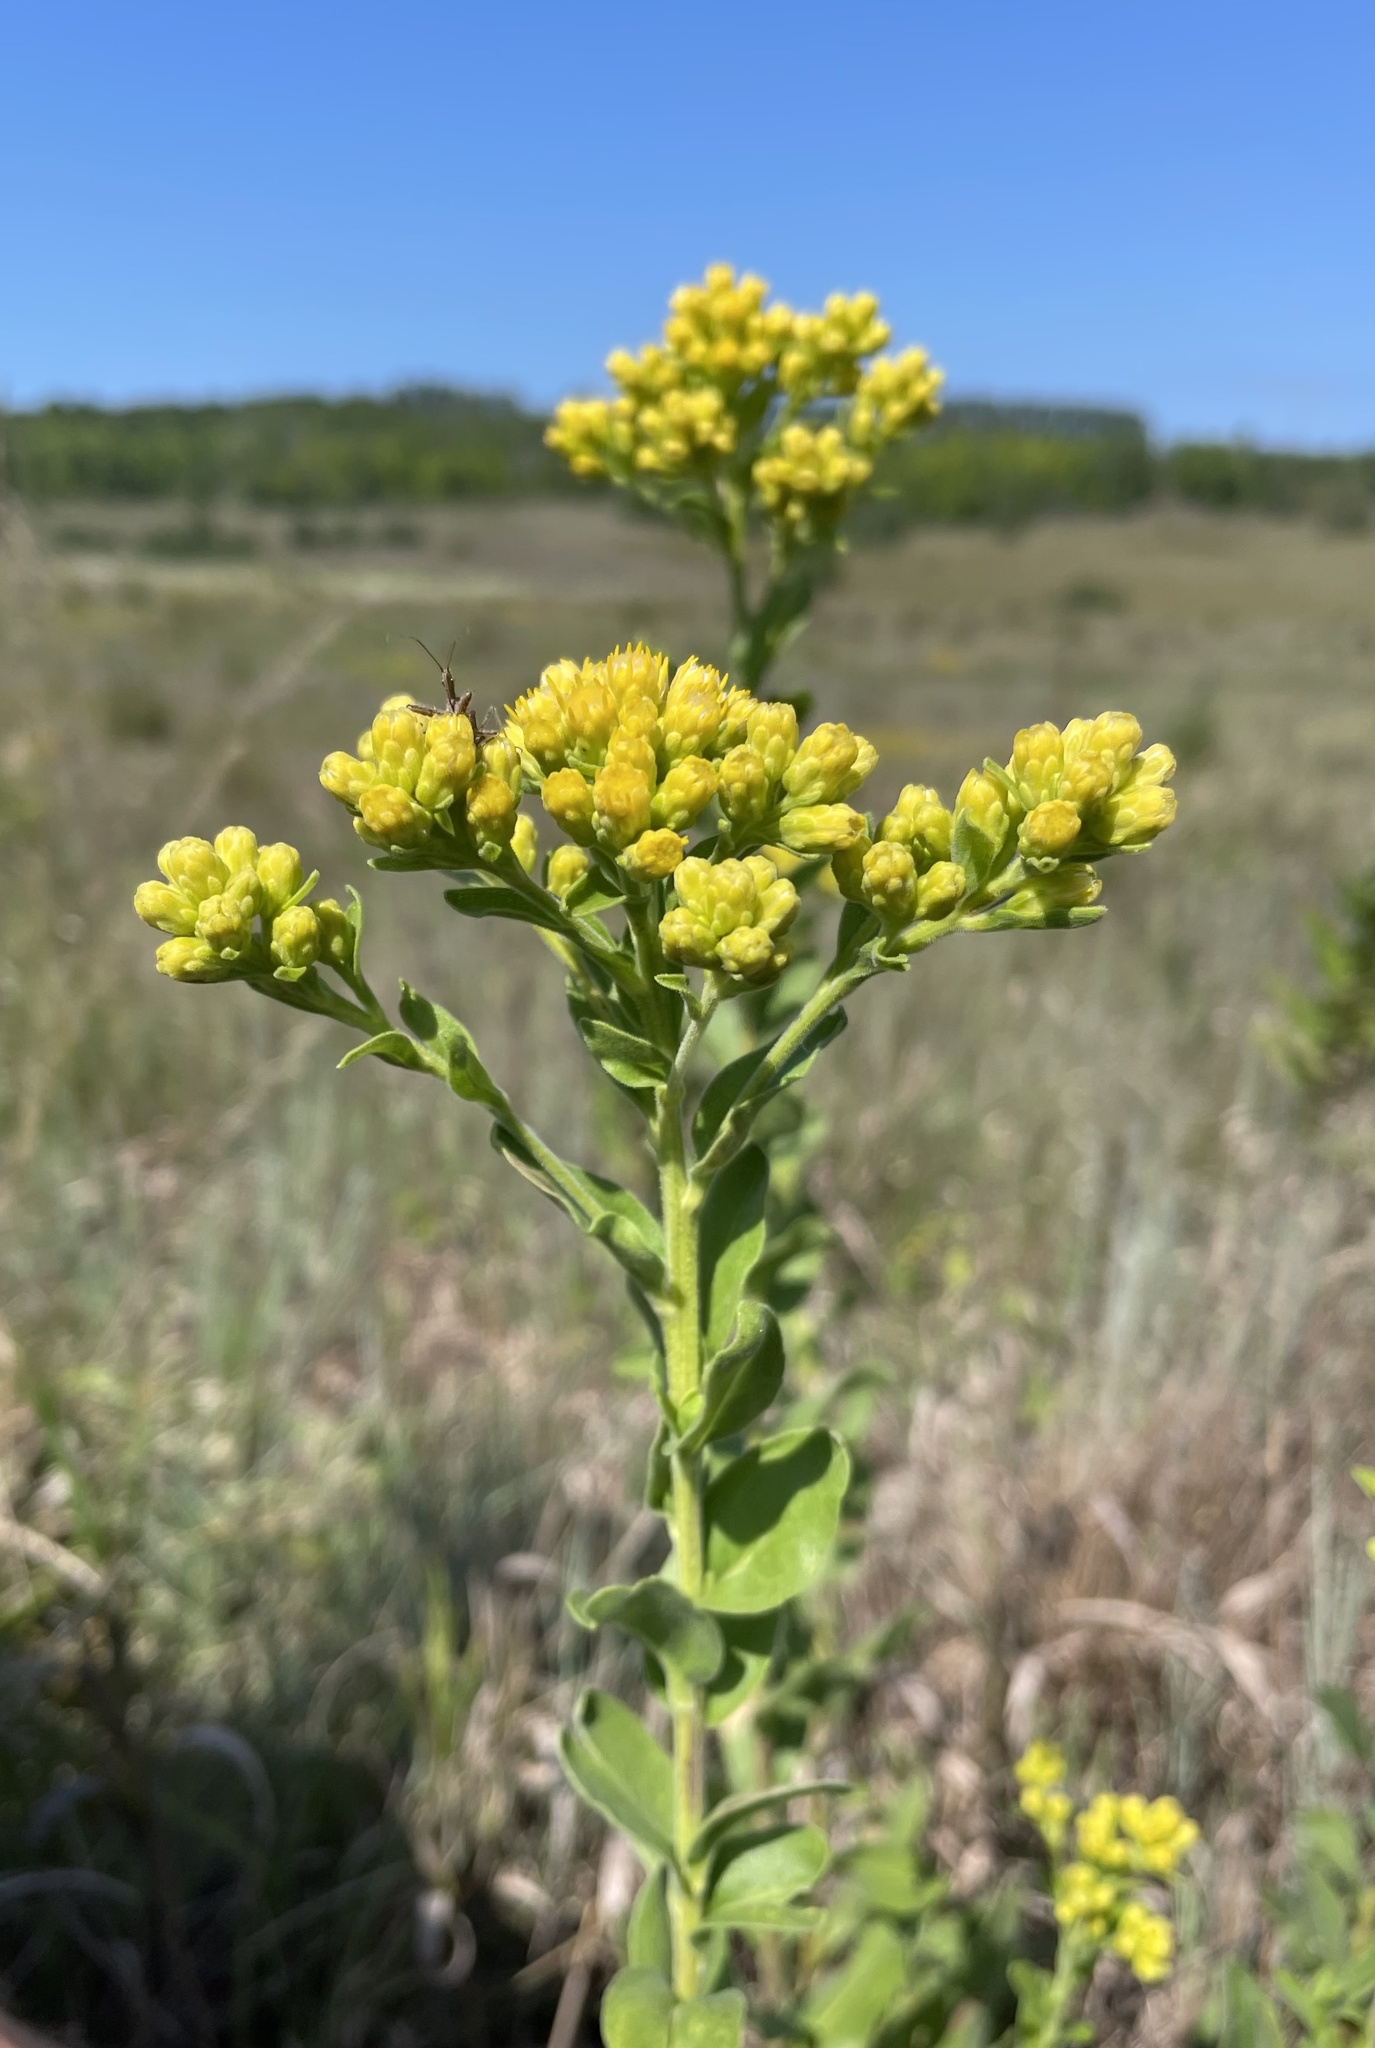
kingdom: Plantae
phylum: Tracheophyta
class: Magnoliopsida
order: Asterales
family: Asteraceae
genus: Solidago
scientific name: Solidago rigida
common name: Rigid goldenrod
